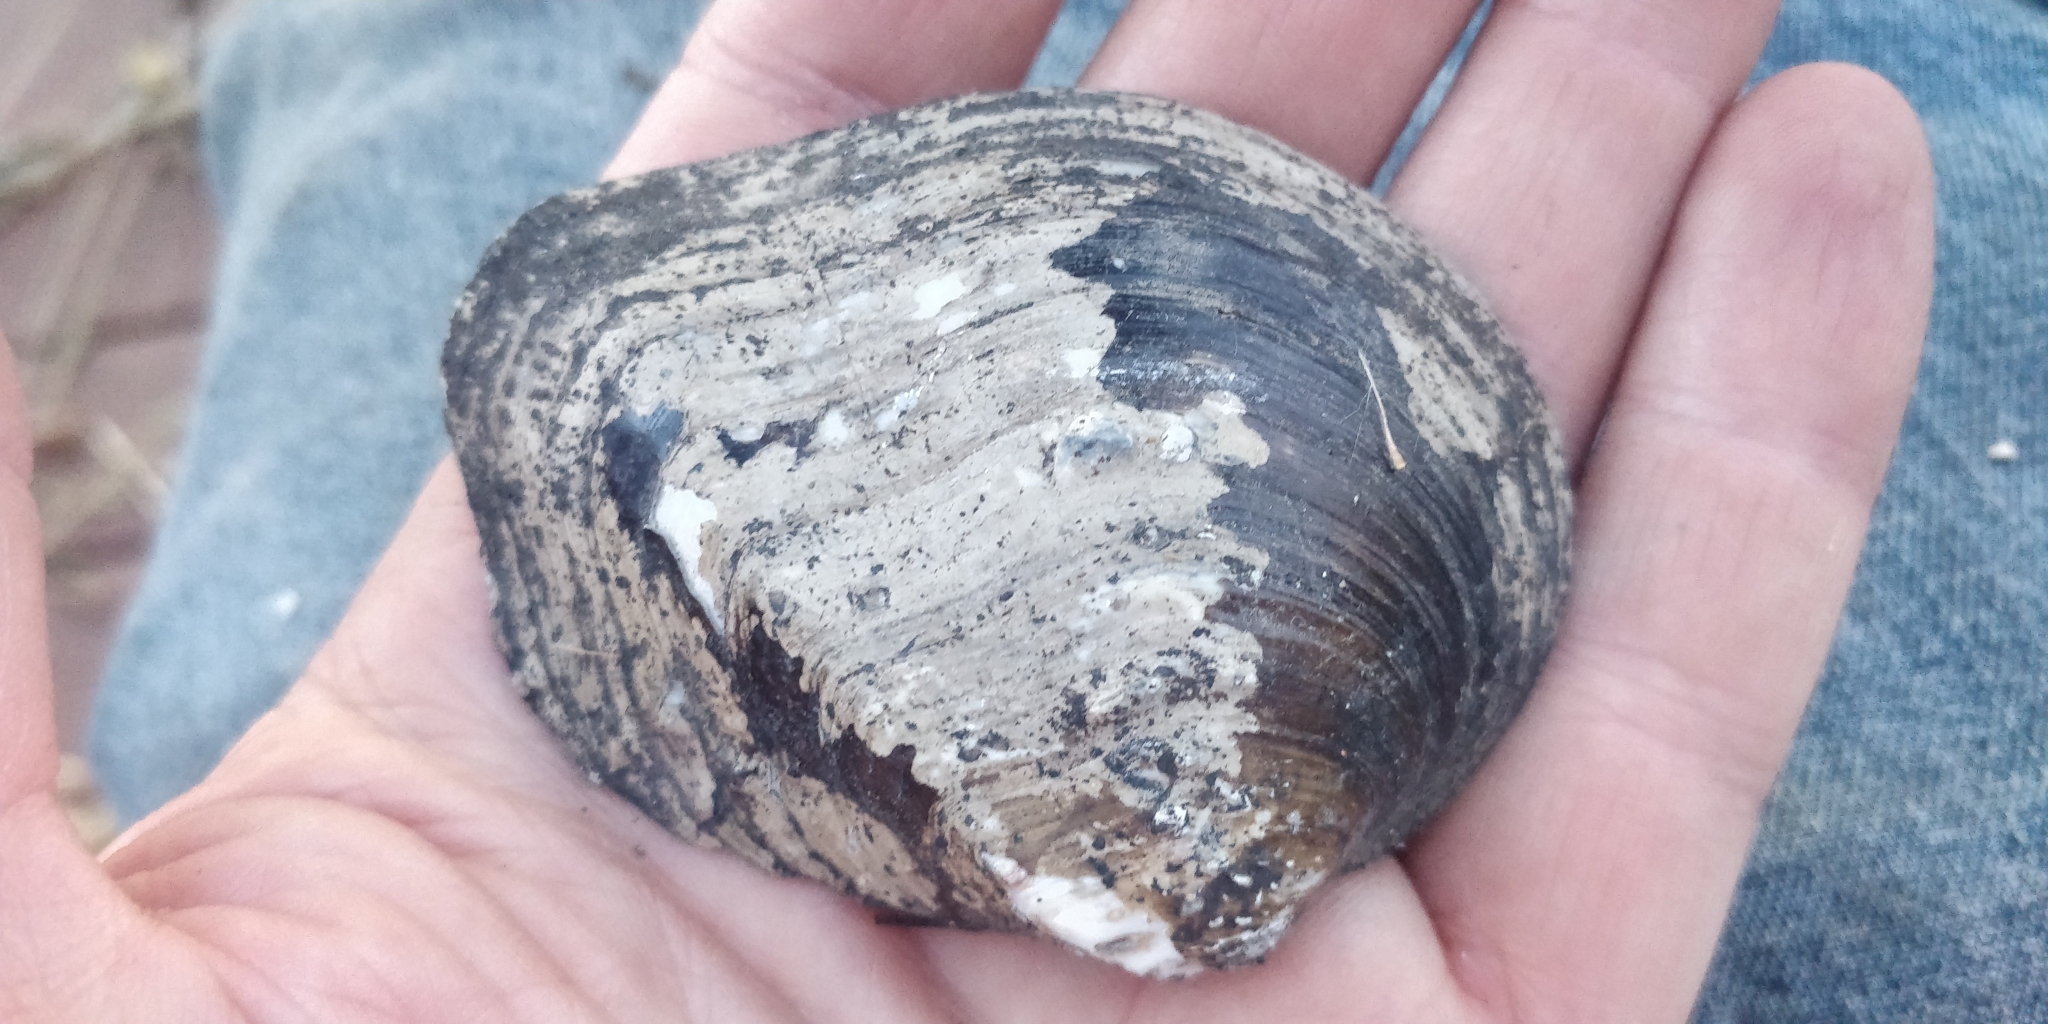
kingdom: Animalia
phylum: Mollusca
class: Bivalvia
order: Unionida
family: Unionidae
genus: Quadrula
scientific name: Quadrula quadrula
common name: Mapleleaf
